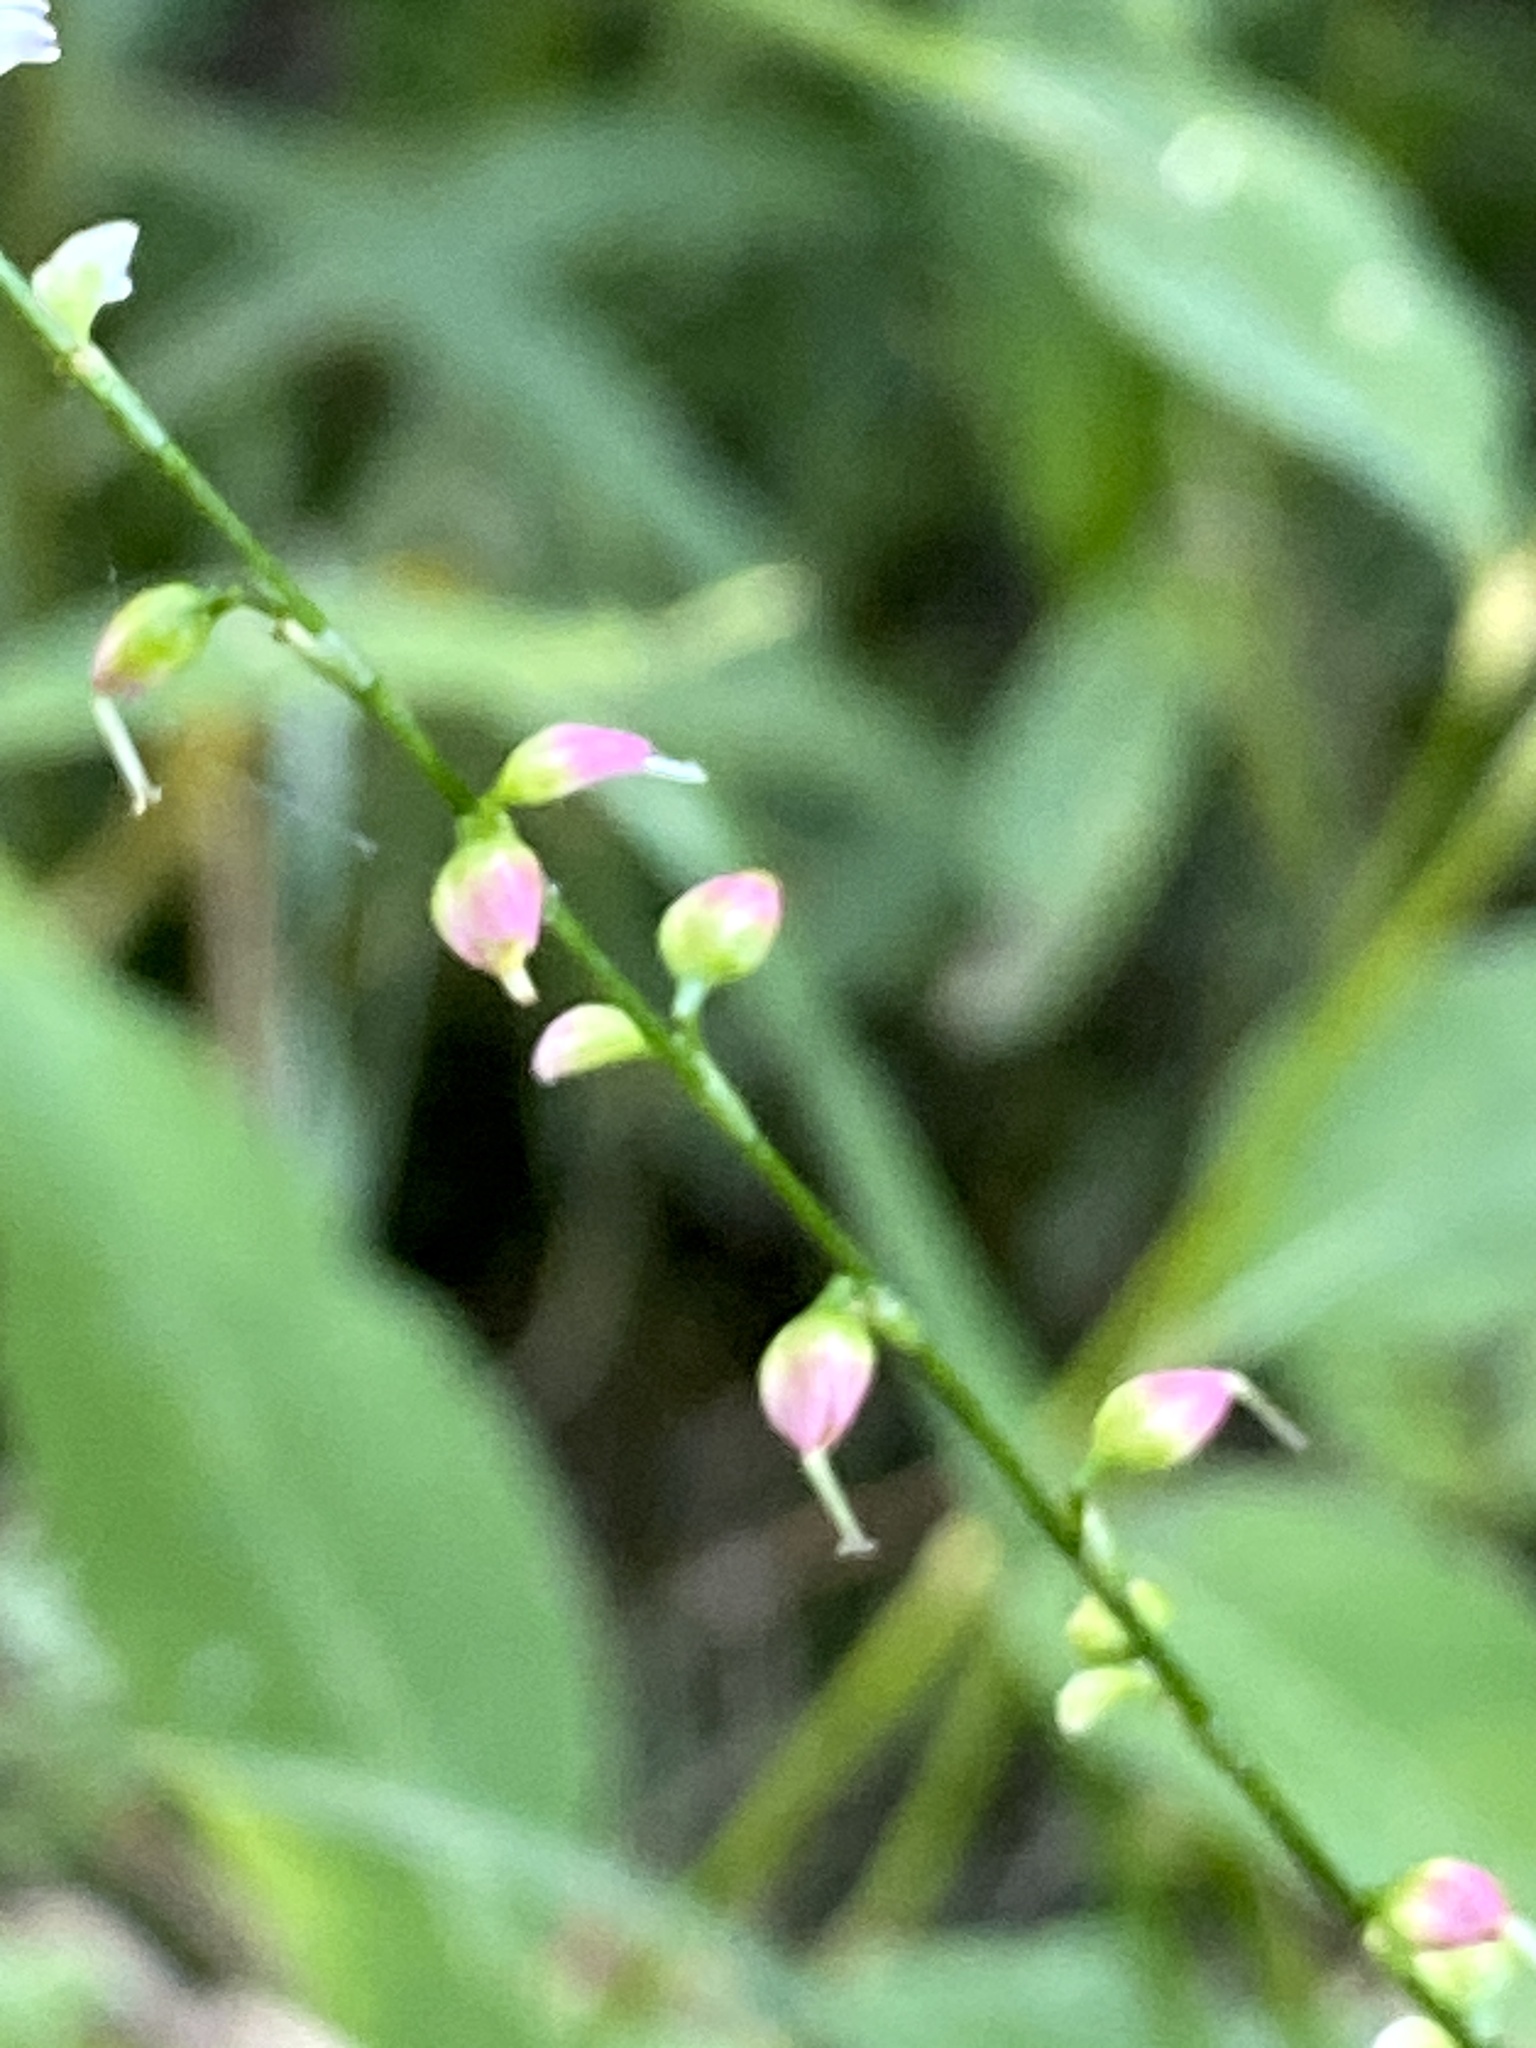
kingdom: Plantae
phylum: Tracheophyta
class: Magnoliopsida
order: Caryophyllales
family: Polygonaceae
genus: Persicaria
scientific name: Persicaria virginiana
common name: Jumpseed
